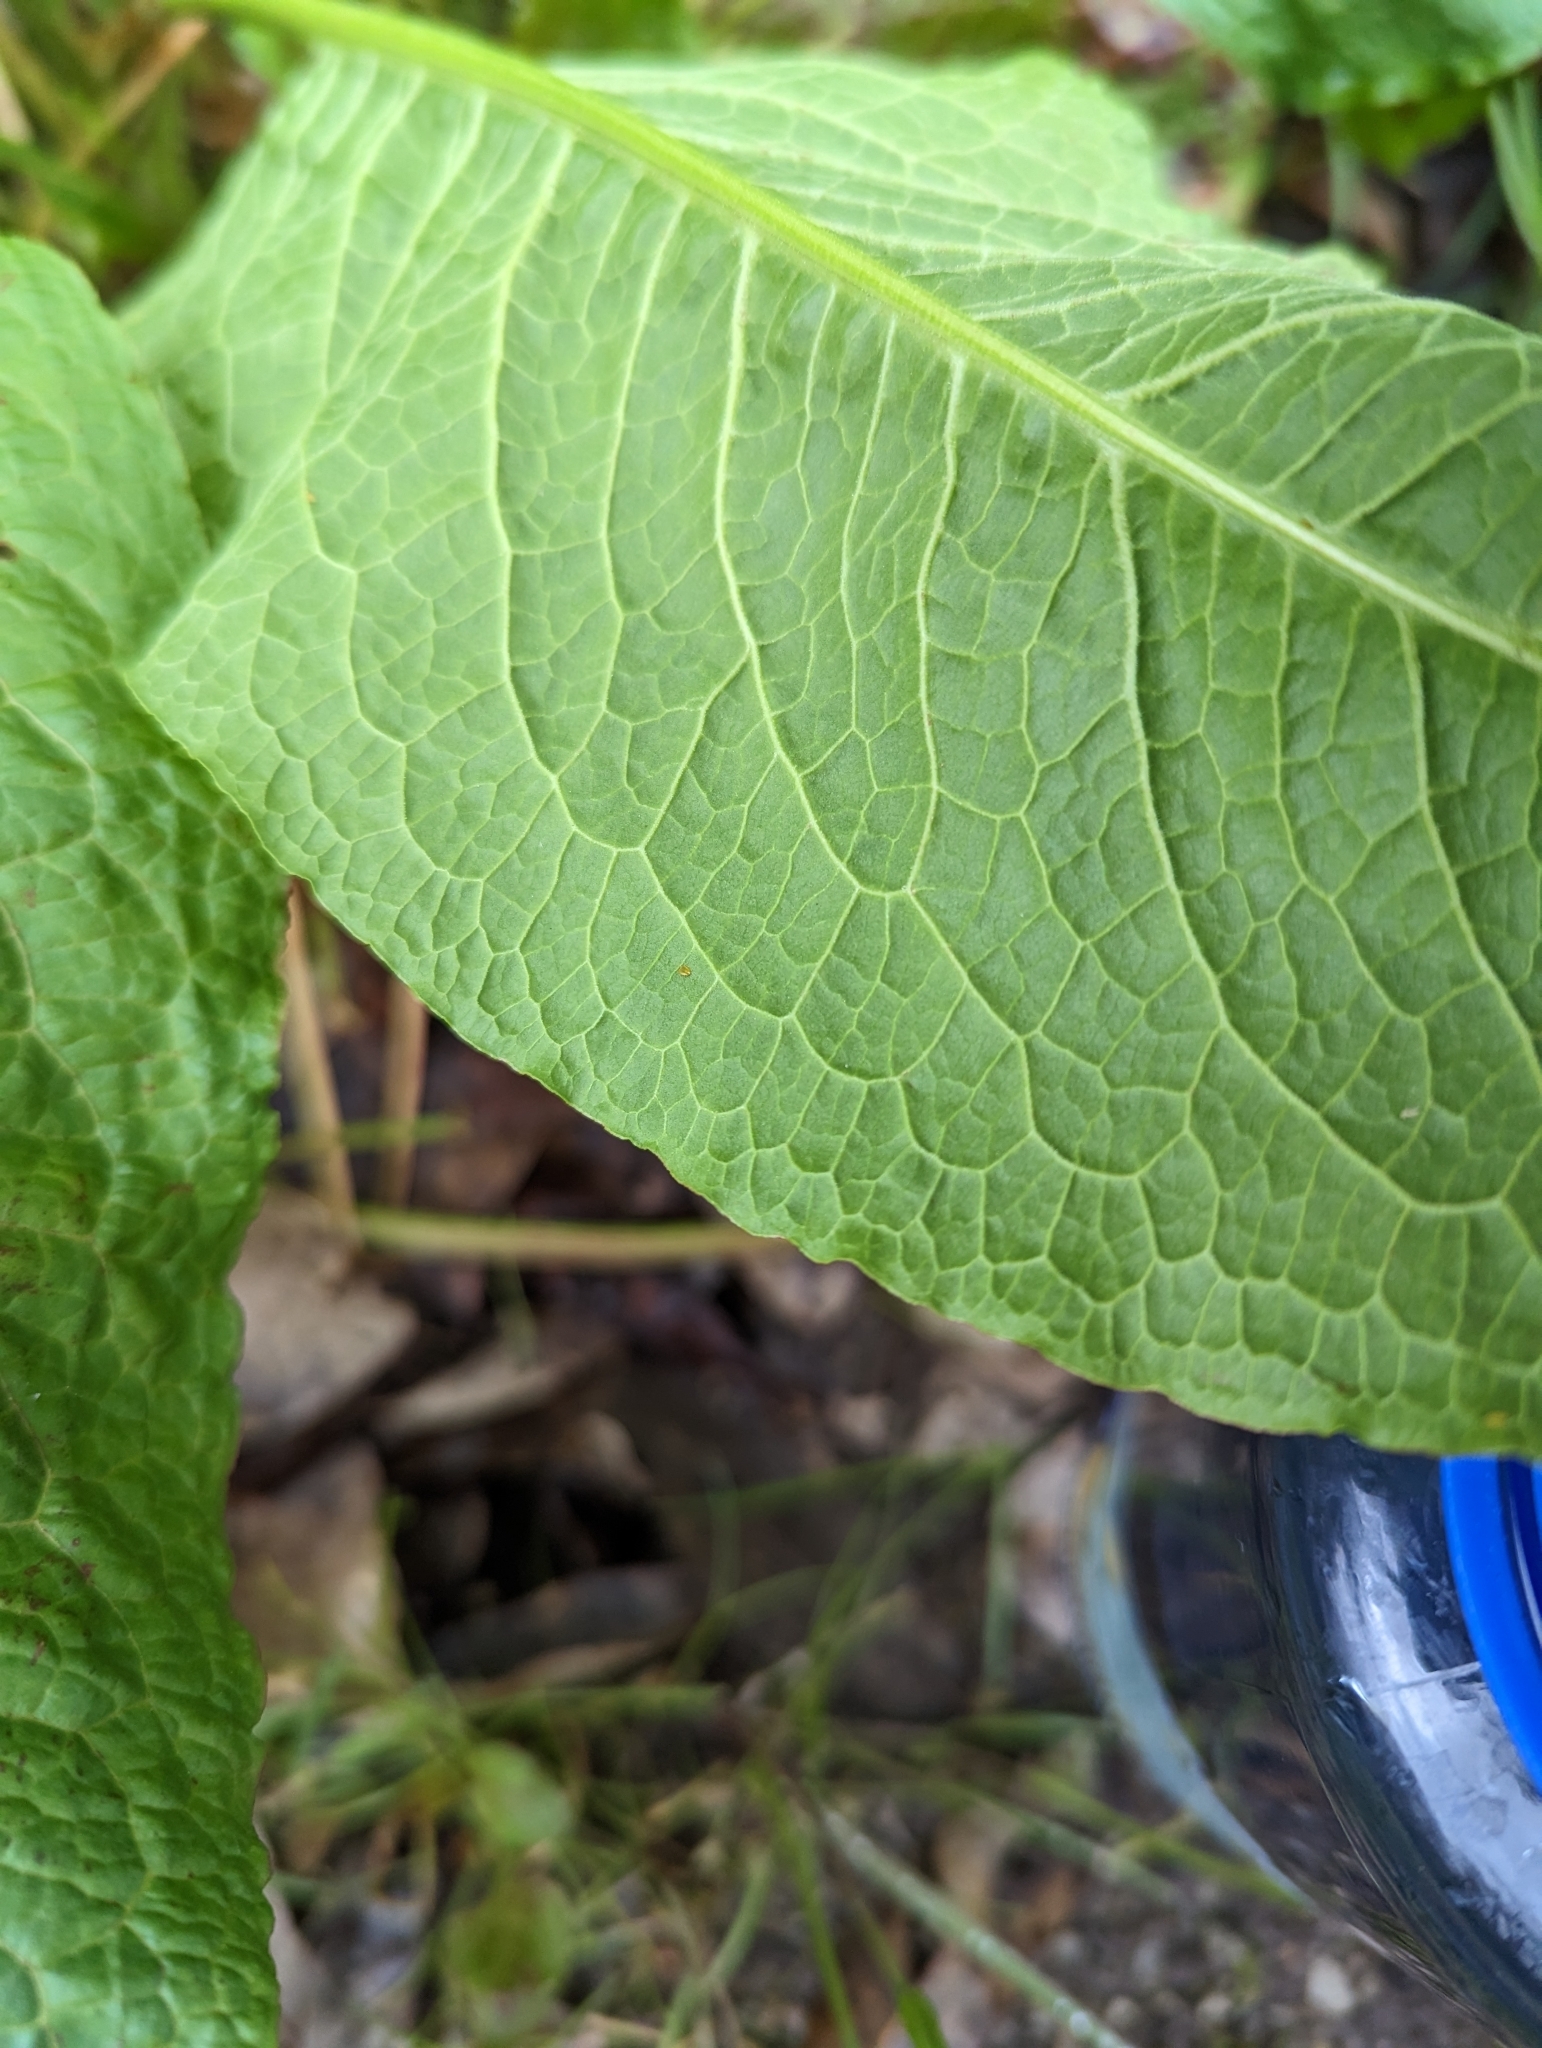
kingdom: Plantae
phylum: Tracheophyta
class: Magnoliopsida
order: Caryophyllales
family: Polygonaceae
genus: Rumex
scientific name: Rumex obtusifolius
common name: Bitter dock
